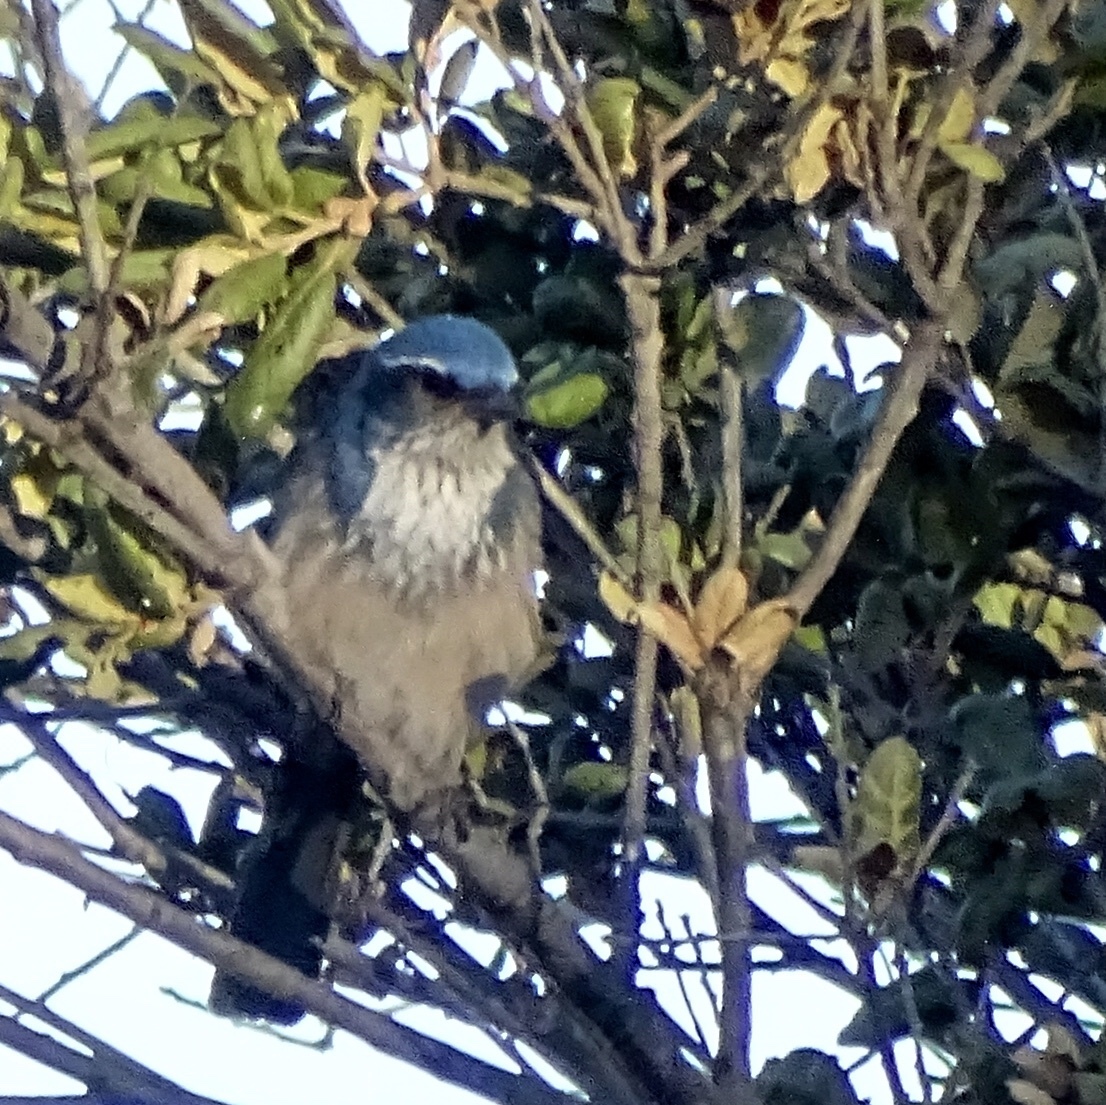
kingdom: Animalia
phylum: Chordata
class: Aves
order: Passeriformes
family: Corvidae
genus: Aphelocoma
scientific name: Aphelocoma californica
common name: California scrub-jay
